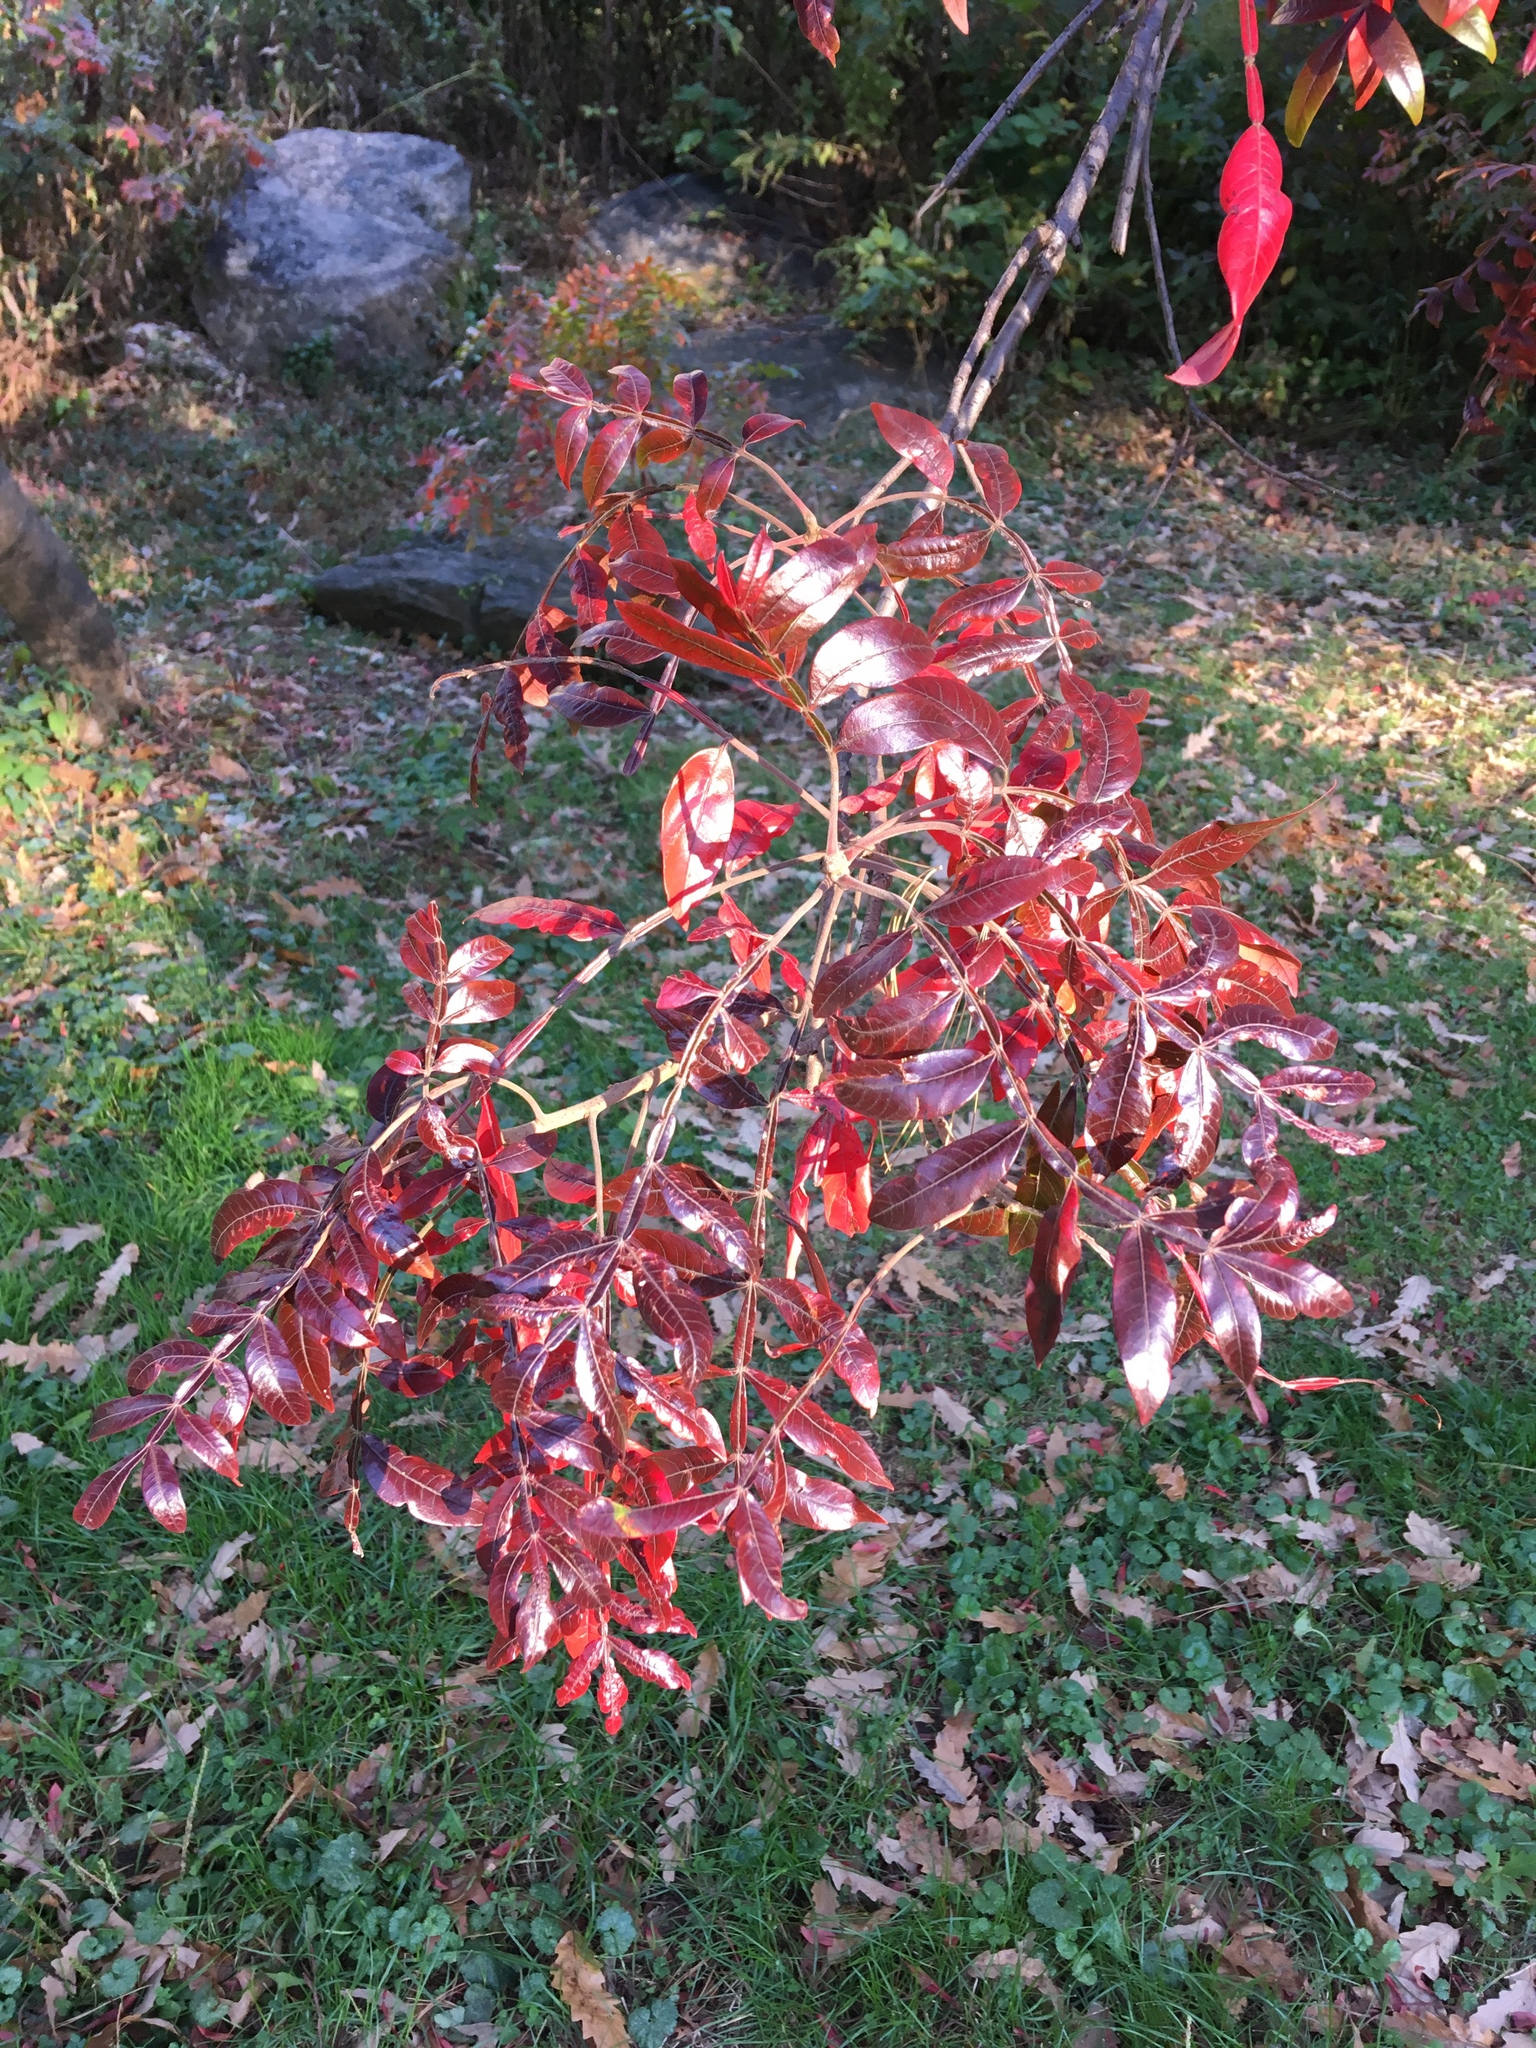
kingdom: Plantae
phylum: Tracheophyta
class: Magnoliopsida
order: Sapindales
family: Anacardiaceae
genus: Rhus
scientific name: Rhus copallina
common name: Shining sumac
